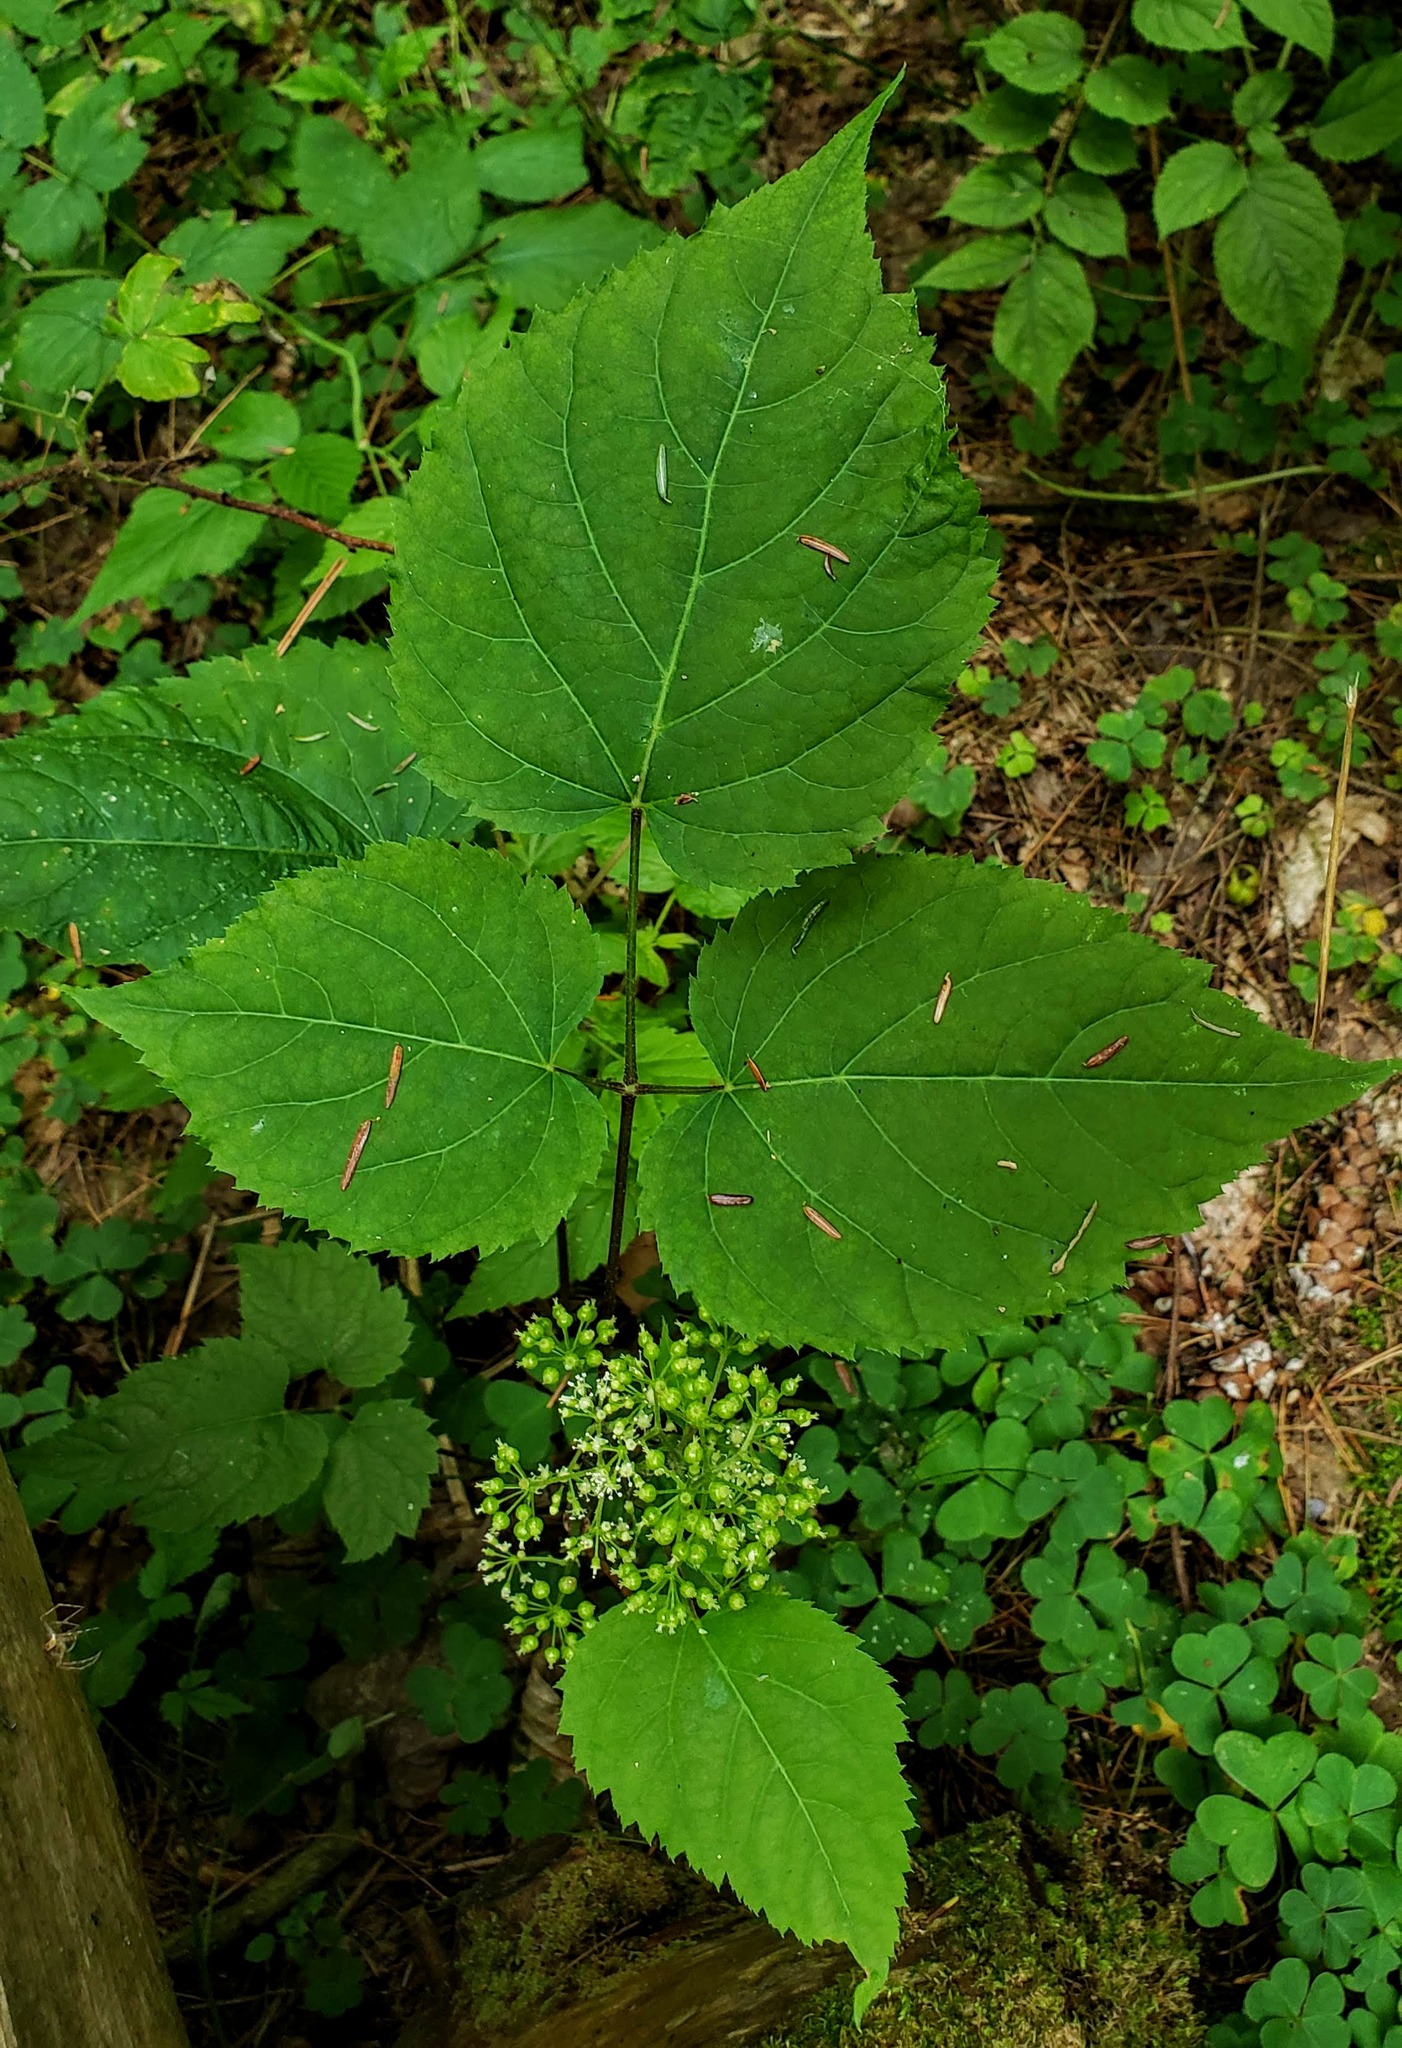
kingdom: Plantae
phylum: Tracheophyta
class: Magnoliopsida
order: Apiales
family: Araliaceae
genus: Aralia
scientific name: Aralia racemosa
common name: American-spikenard
